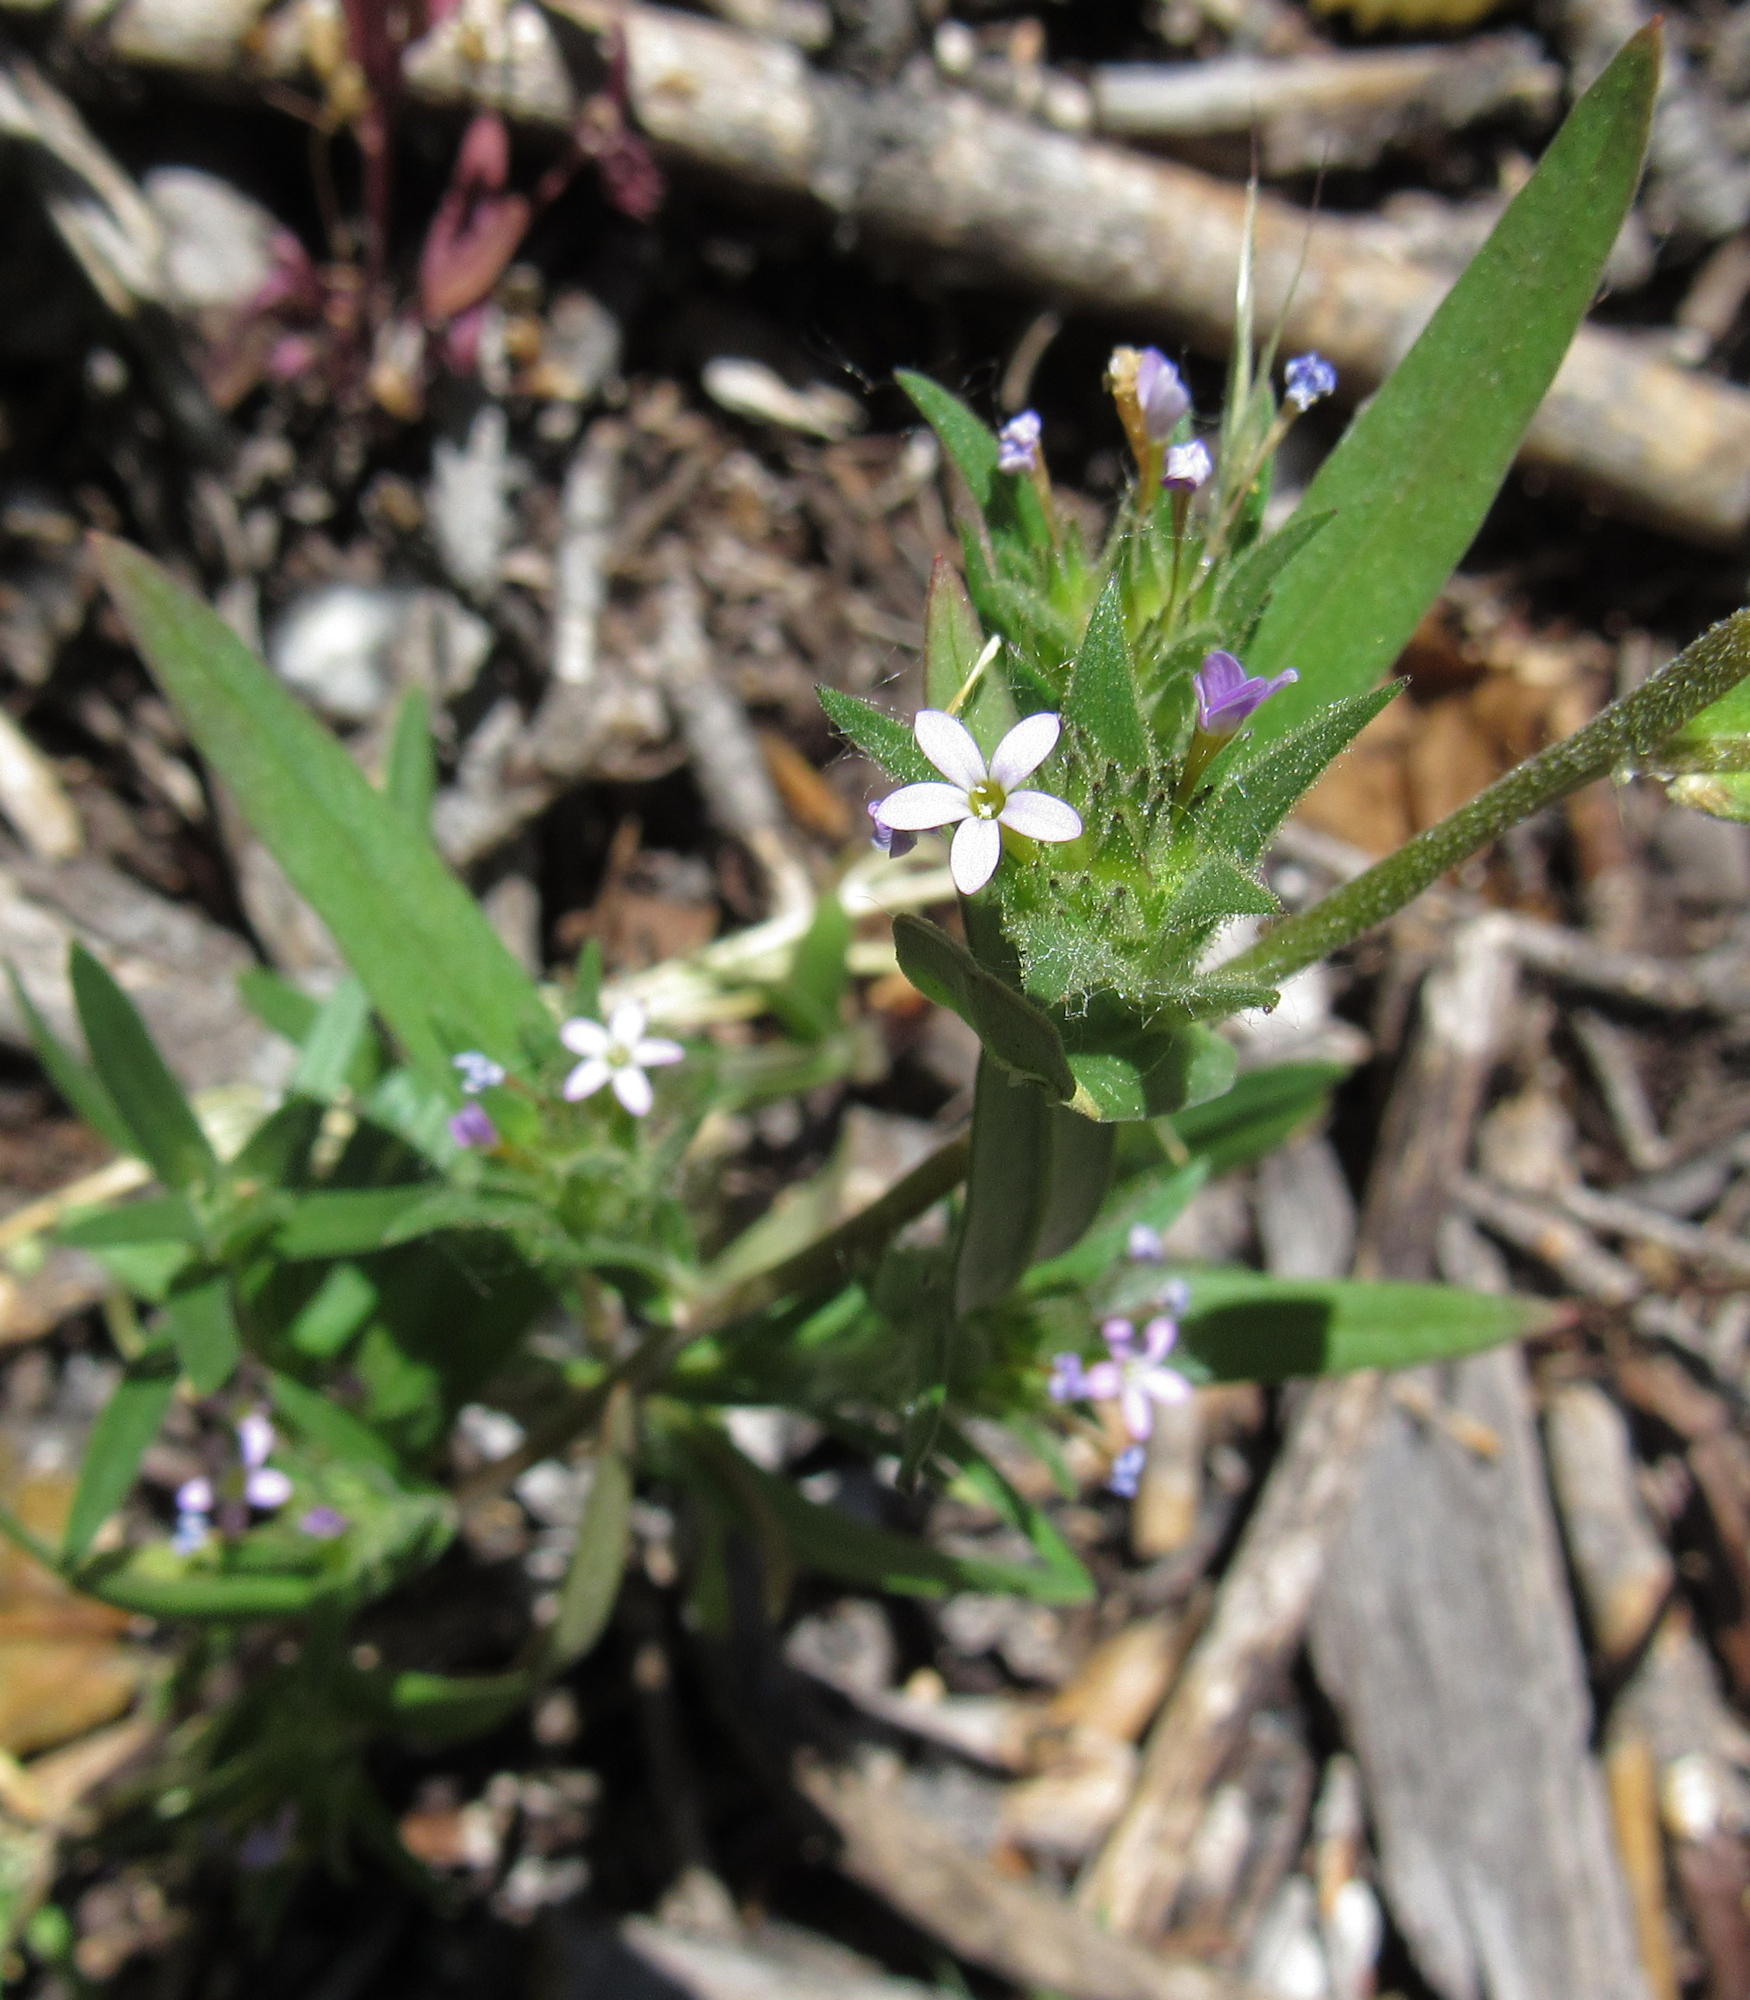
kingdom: Plantae
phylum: Tracheophyta
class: Magnoliopsida
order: Ericales
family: Polemoniaceae
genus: Collomia
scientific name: Collomia linearis
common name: Tiny trumpet
